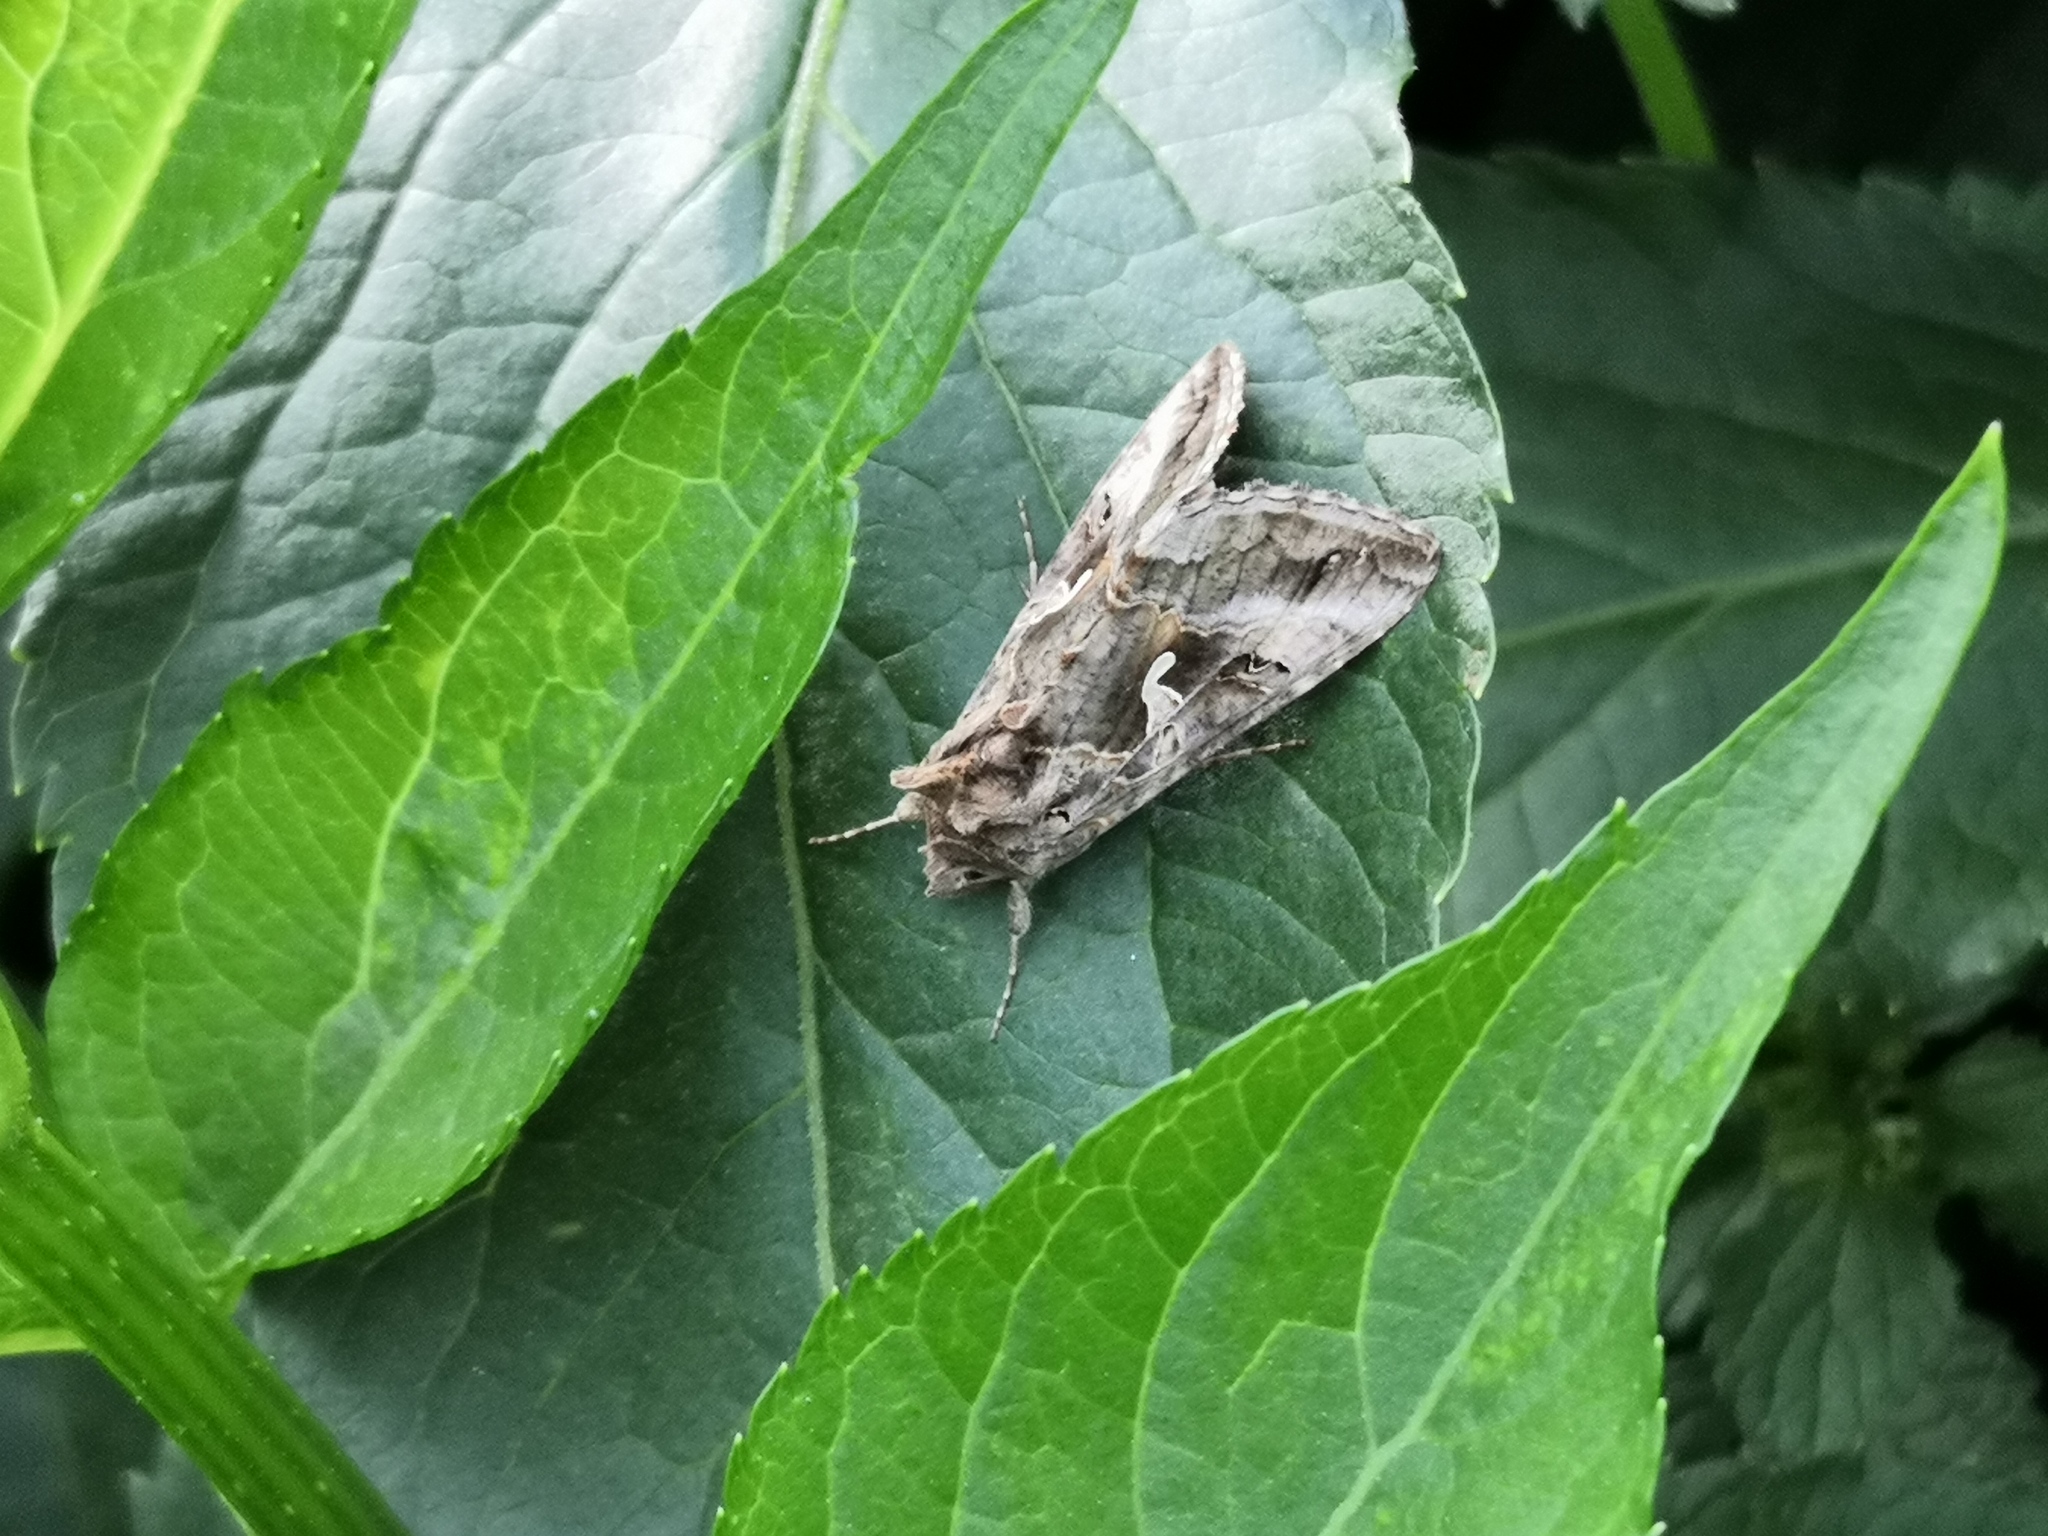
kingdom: Animalia
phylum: Arthropoda
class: Insecta
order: Lepidoptera
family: Noctuidae
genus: Autographa
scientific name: Autographa gamma
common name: Silver y
